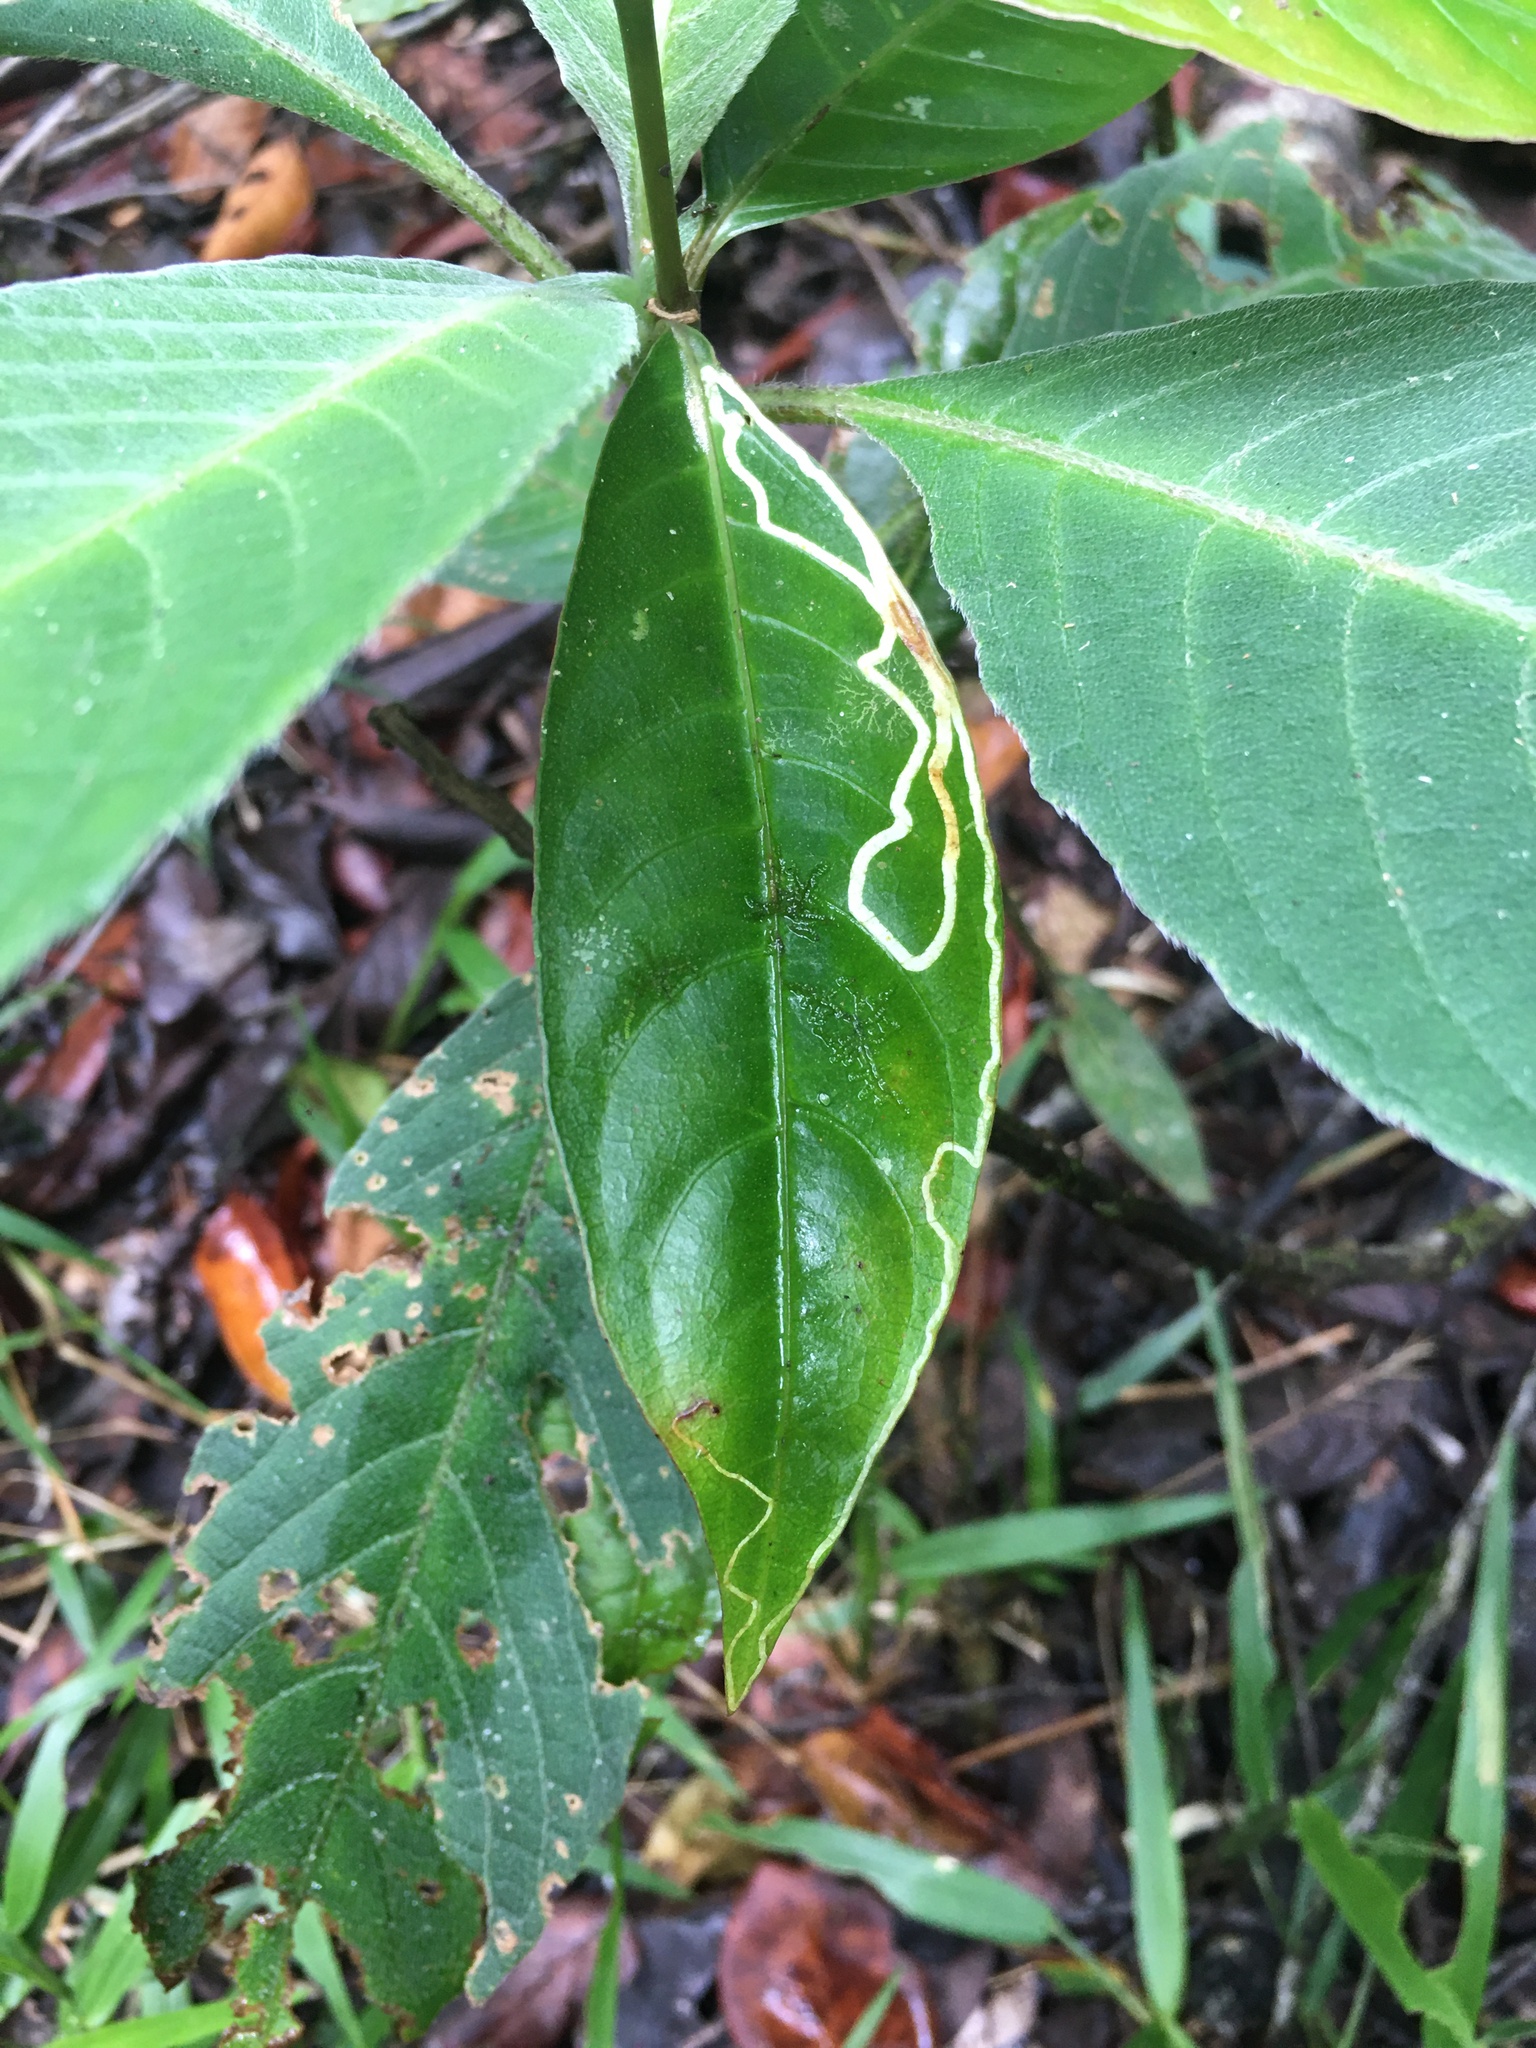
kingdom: Plantae
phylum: Tracheophyta
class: Magnoliopsida
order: Lamiales
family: Acanthaceae
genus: Ruellia
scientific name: Ruellia cearensis
